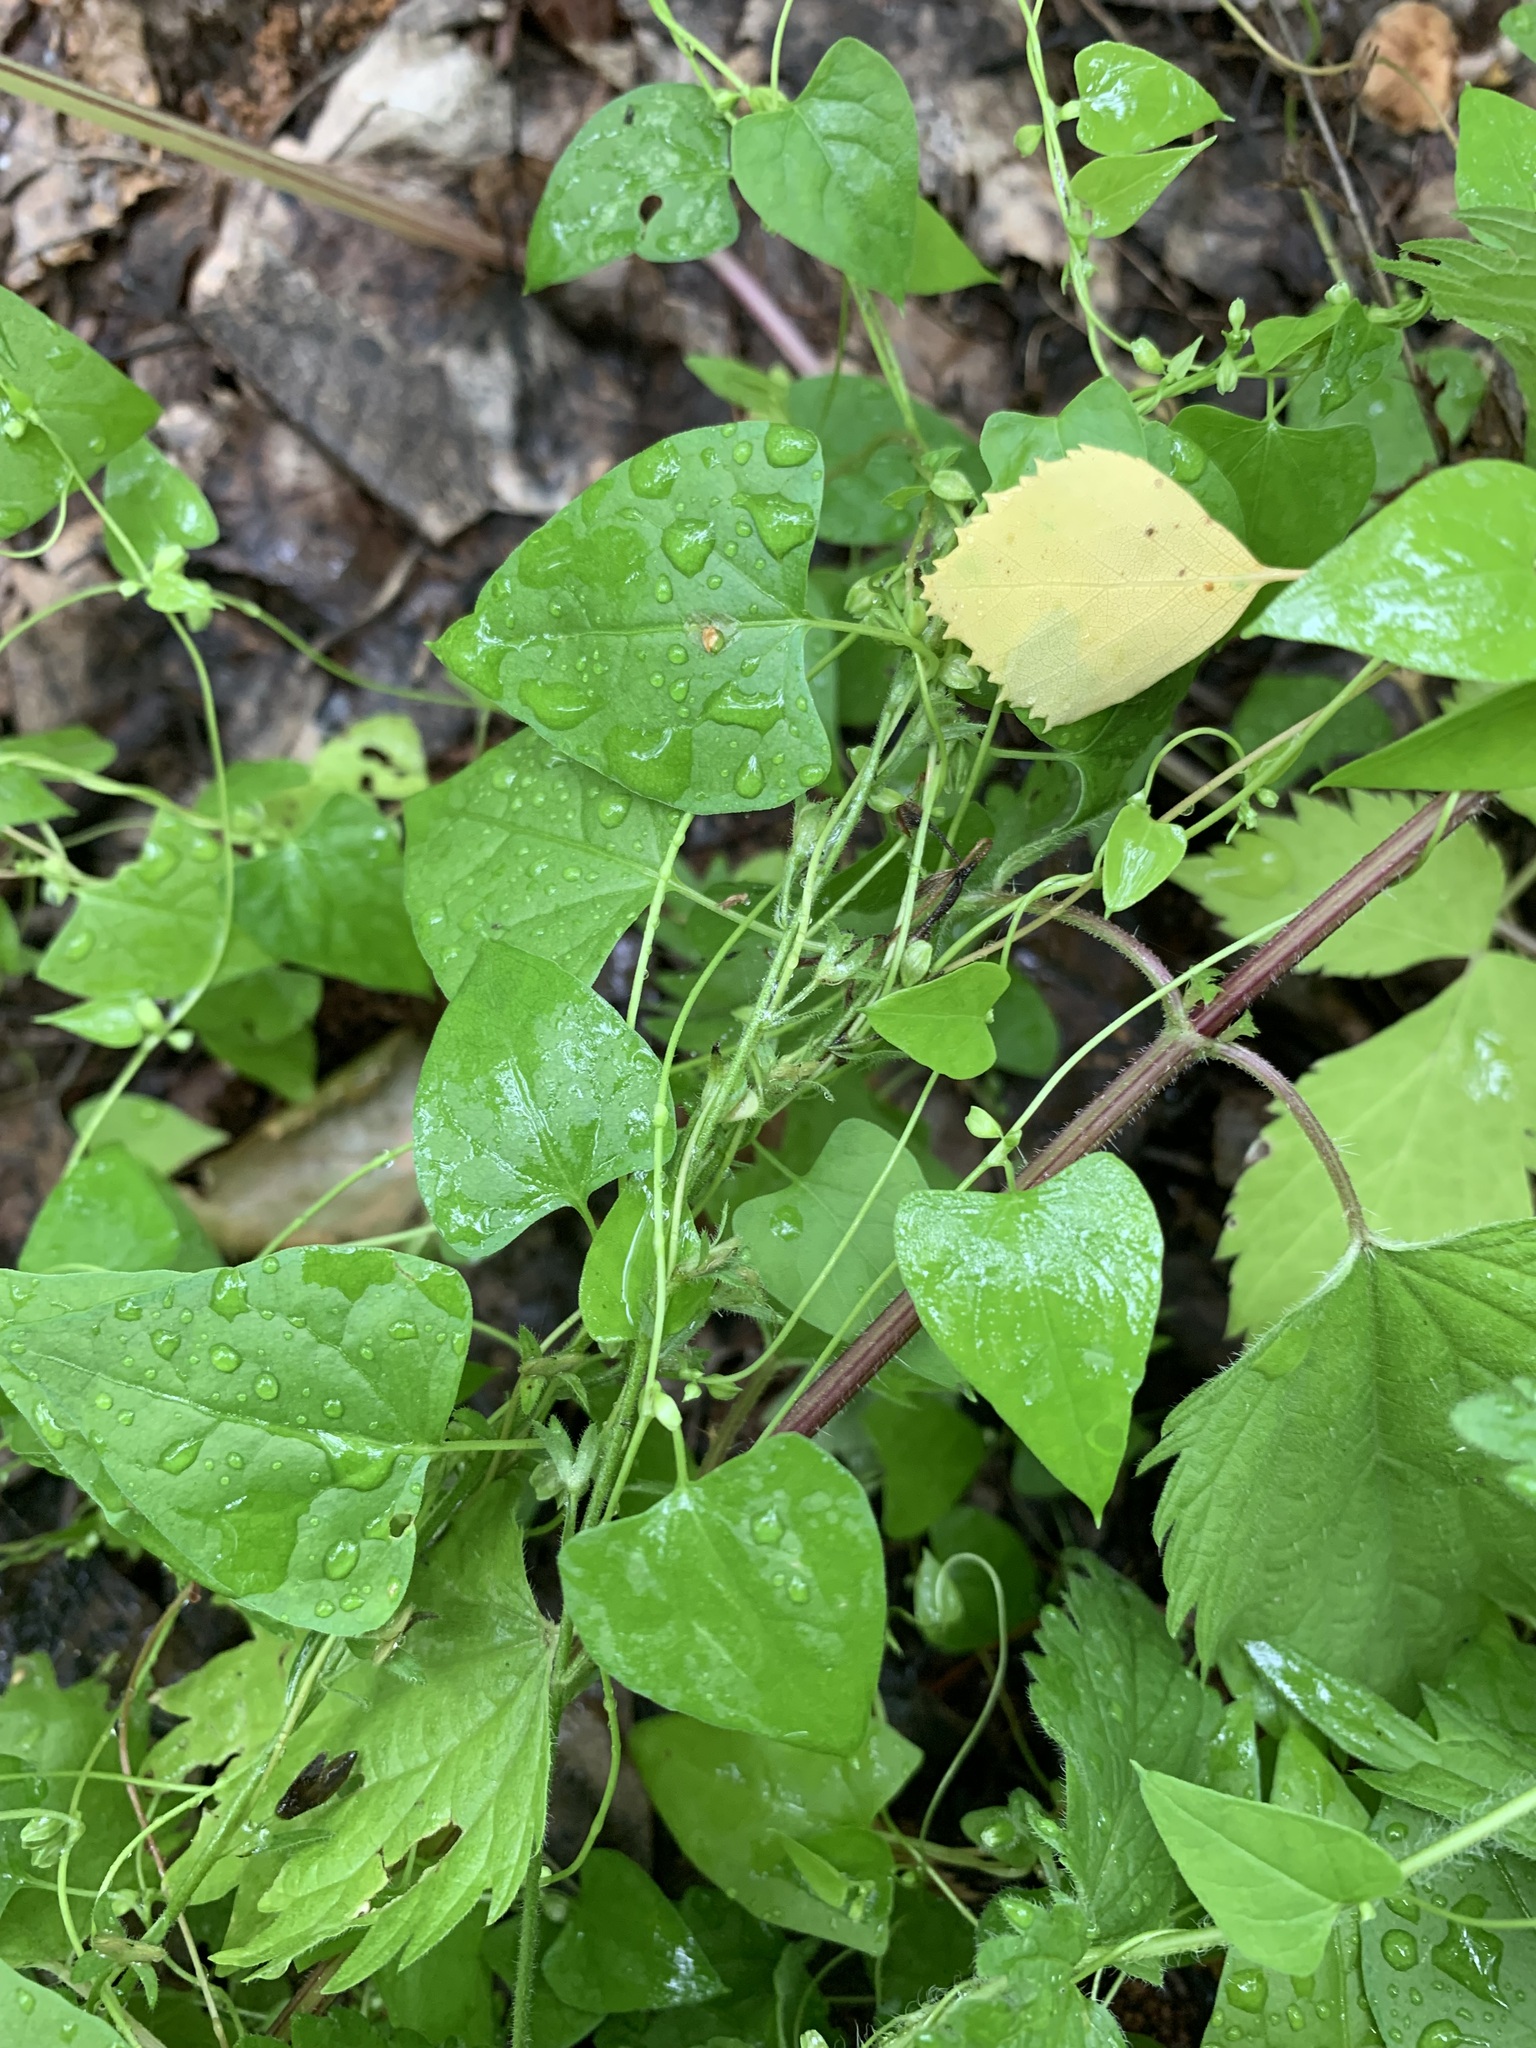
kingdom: Plantae
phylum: Tracheophyta
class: Magnoliopsida
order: Caryophyllales
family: Polygonaceae
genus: Fallopia
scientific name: Fallopia convolvulus
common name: Black bindweed
